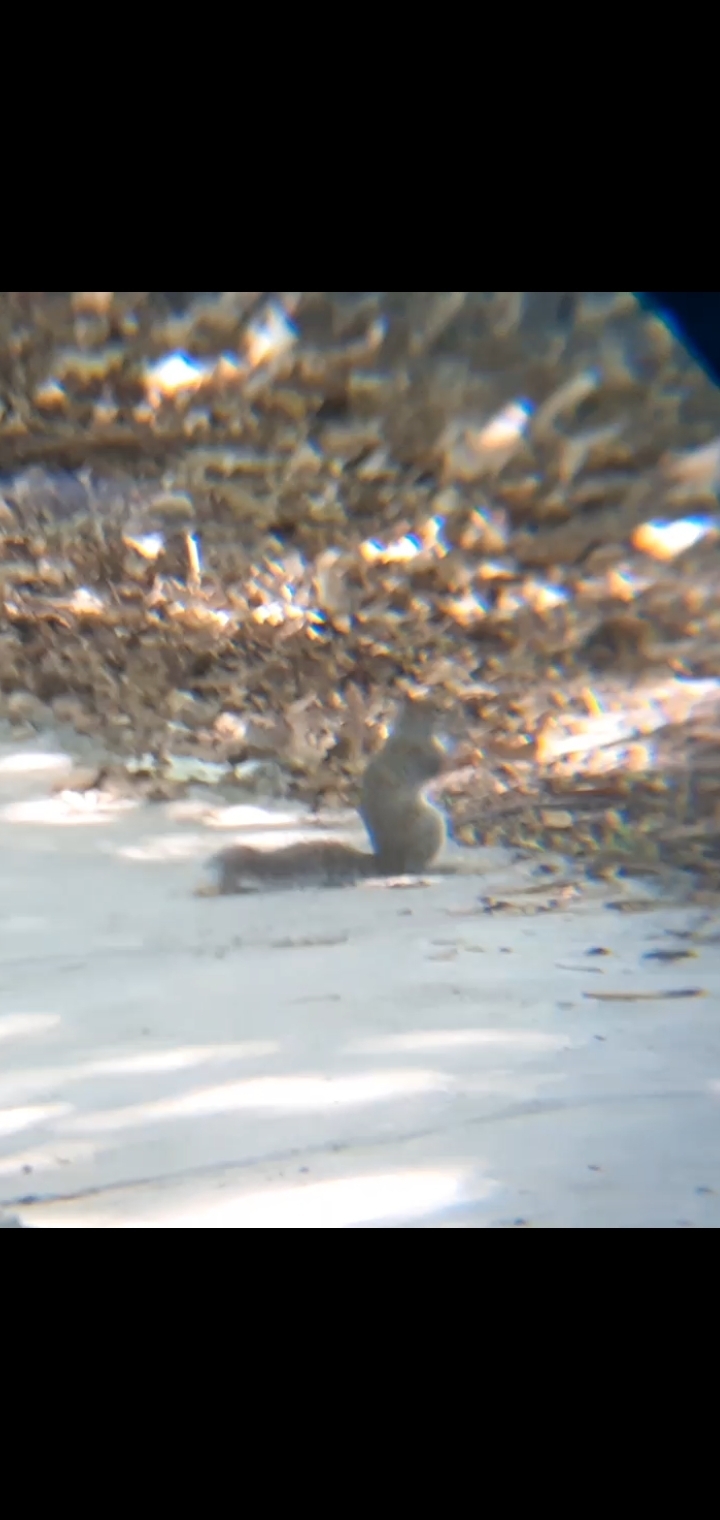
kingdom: Animalia
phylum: Chordata
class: Mammalia
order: Rodentia
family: Sciuridae
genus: Sciurus
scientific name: Sciurus alleni
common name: Allen's squirrel
